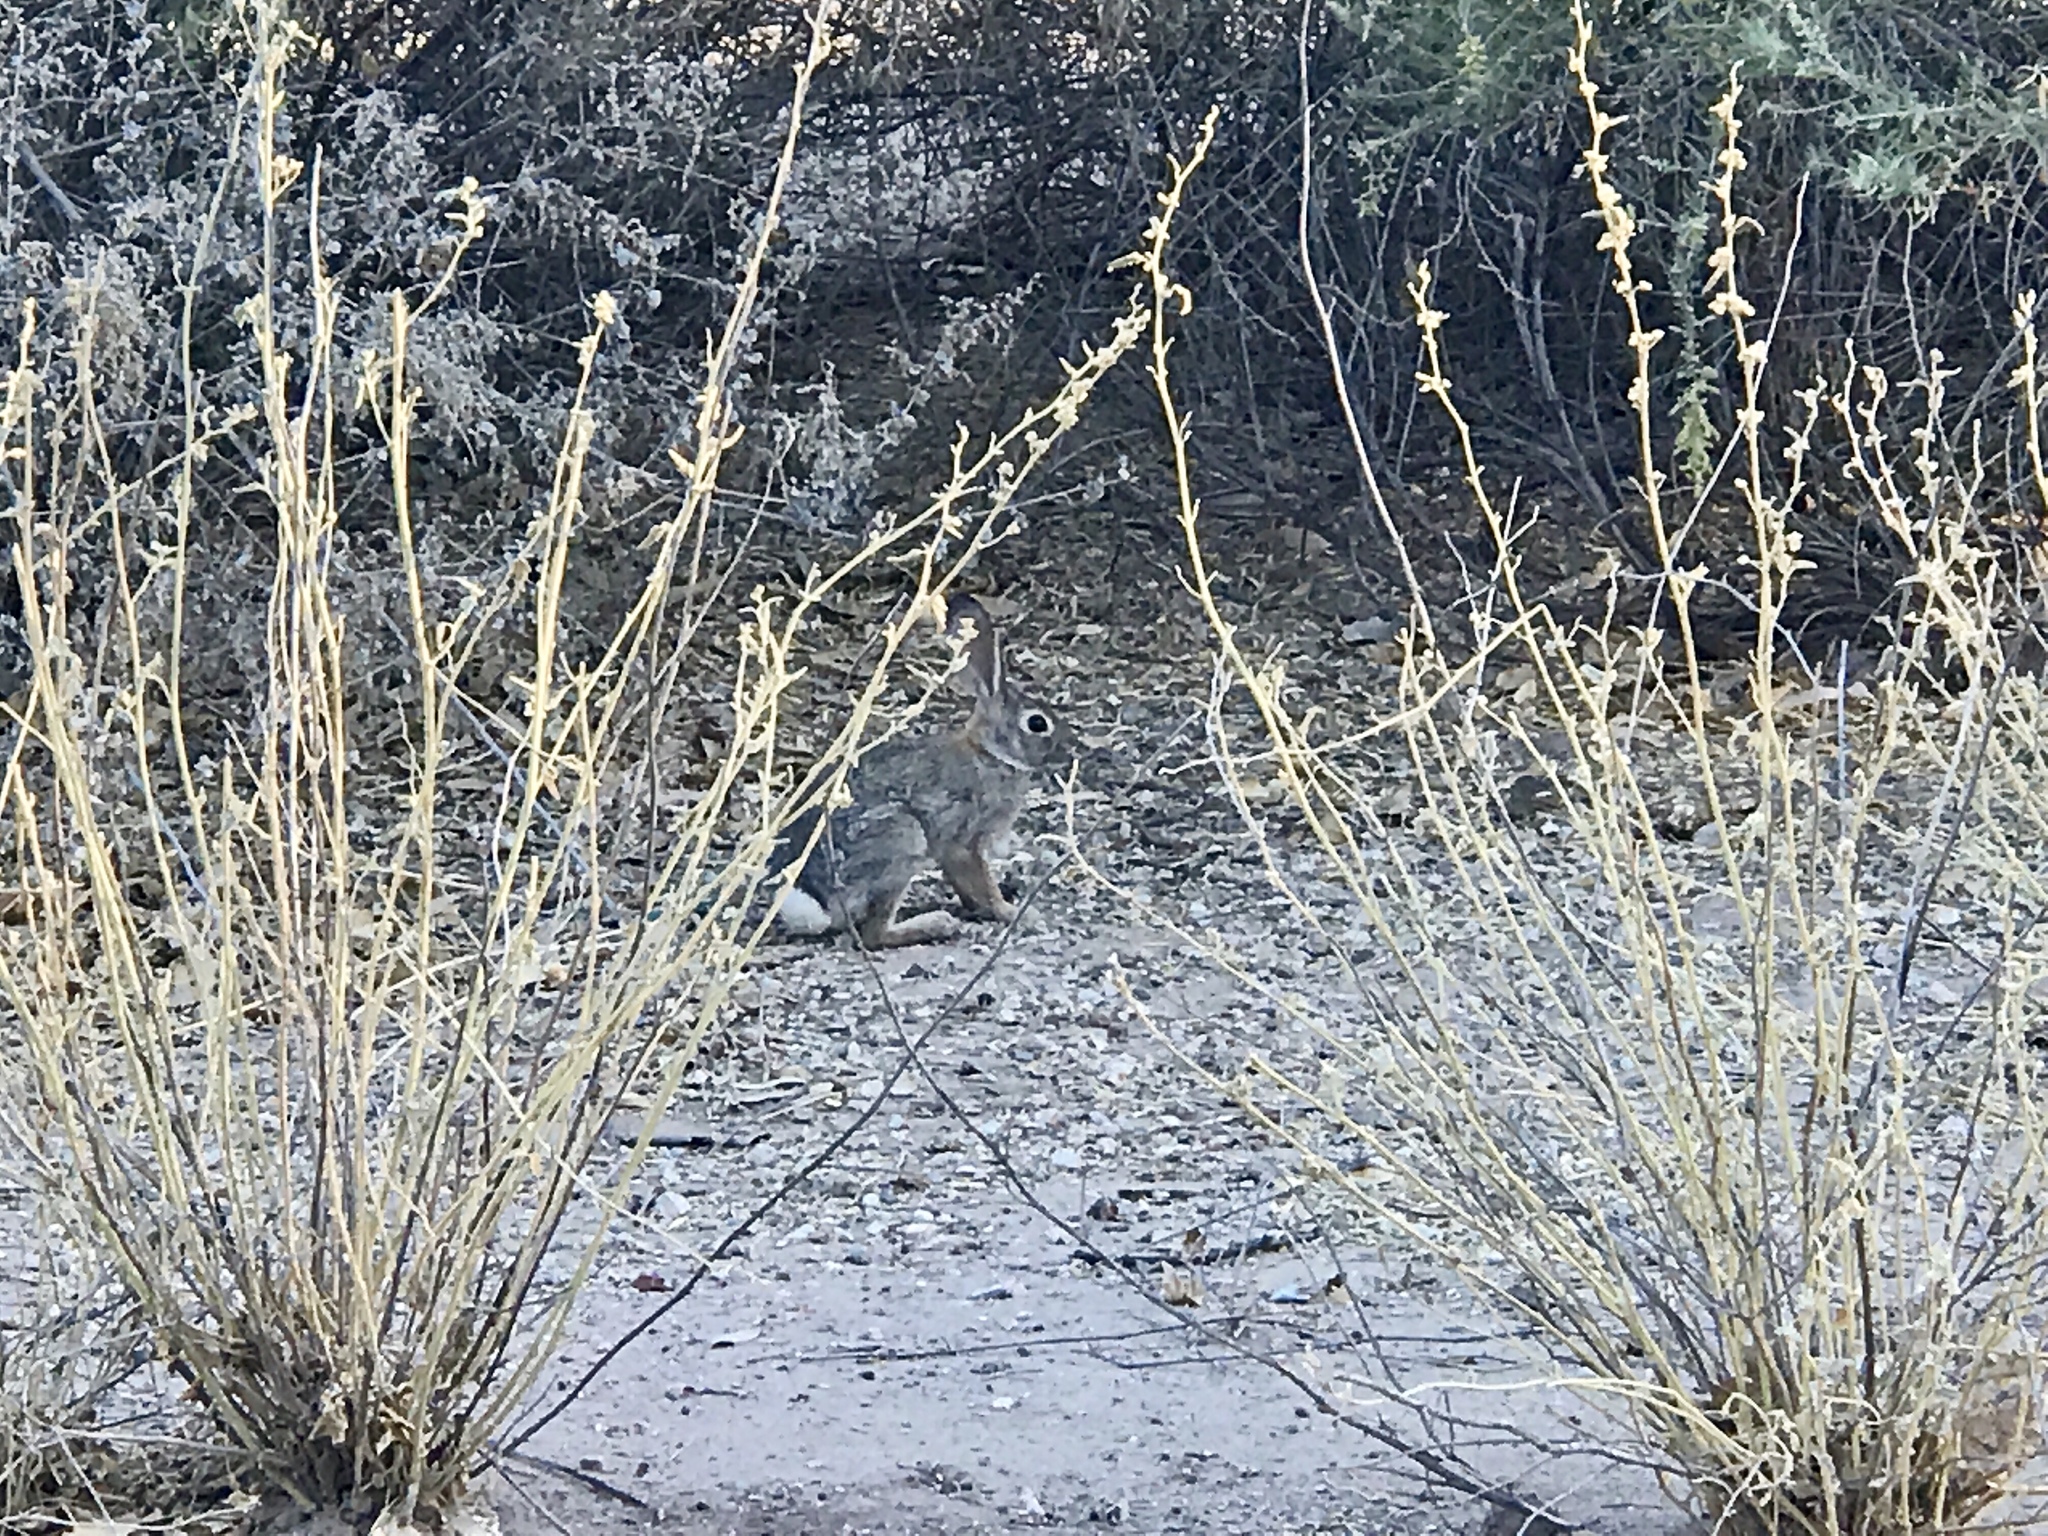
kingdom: Animalia
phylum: Chordata
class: Mammalia
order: Lagomorpha
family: Leporidae
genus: Sylvilagus
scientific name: Sylvilagus audubonii
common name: Desert cottontail
